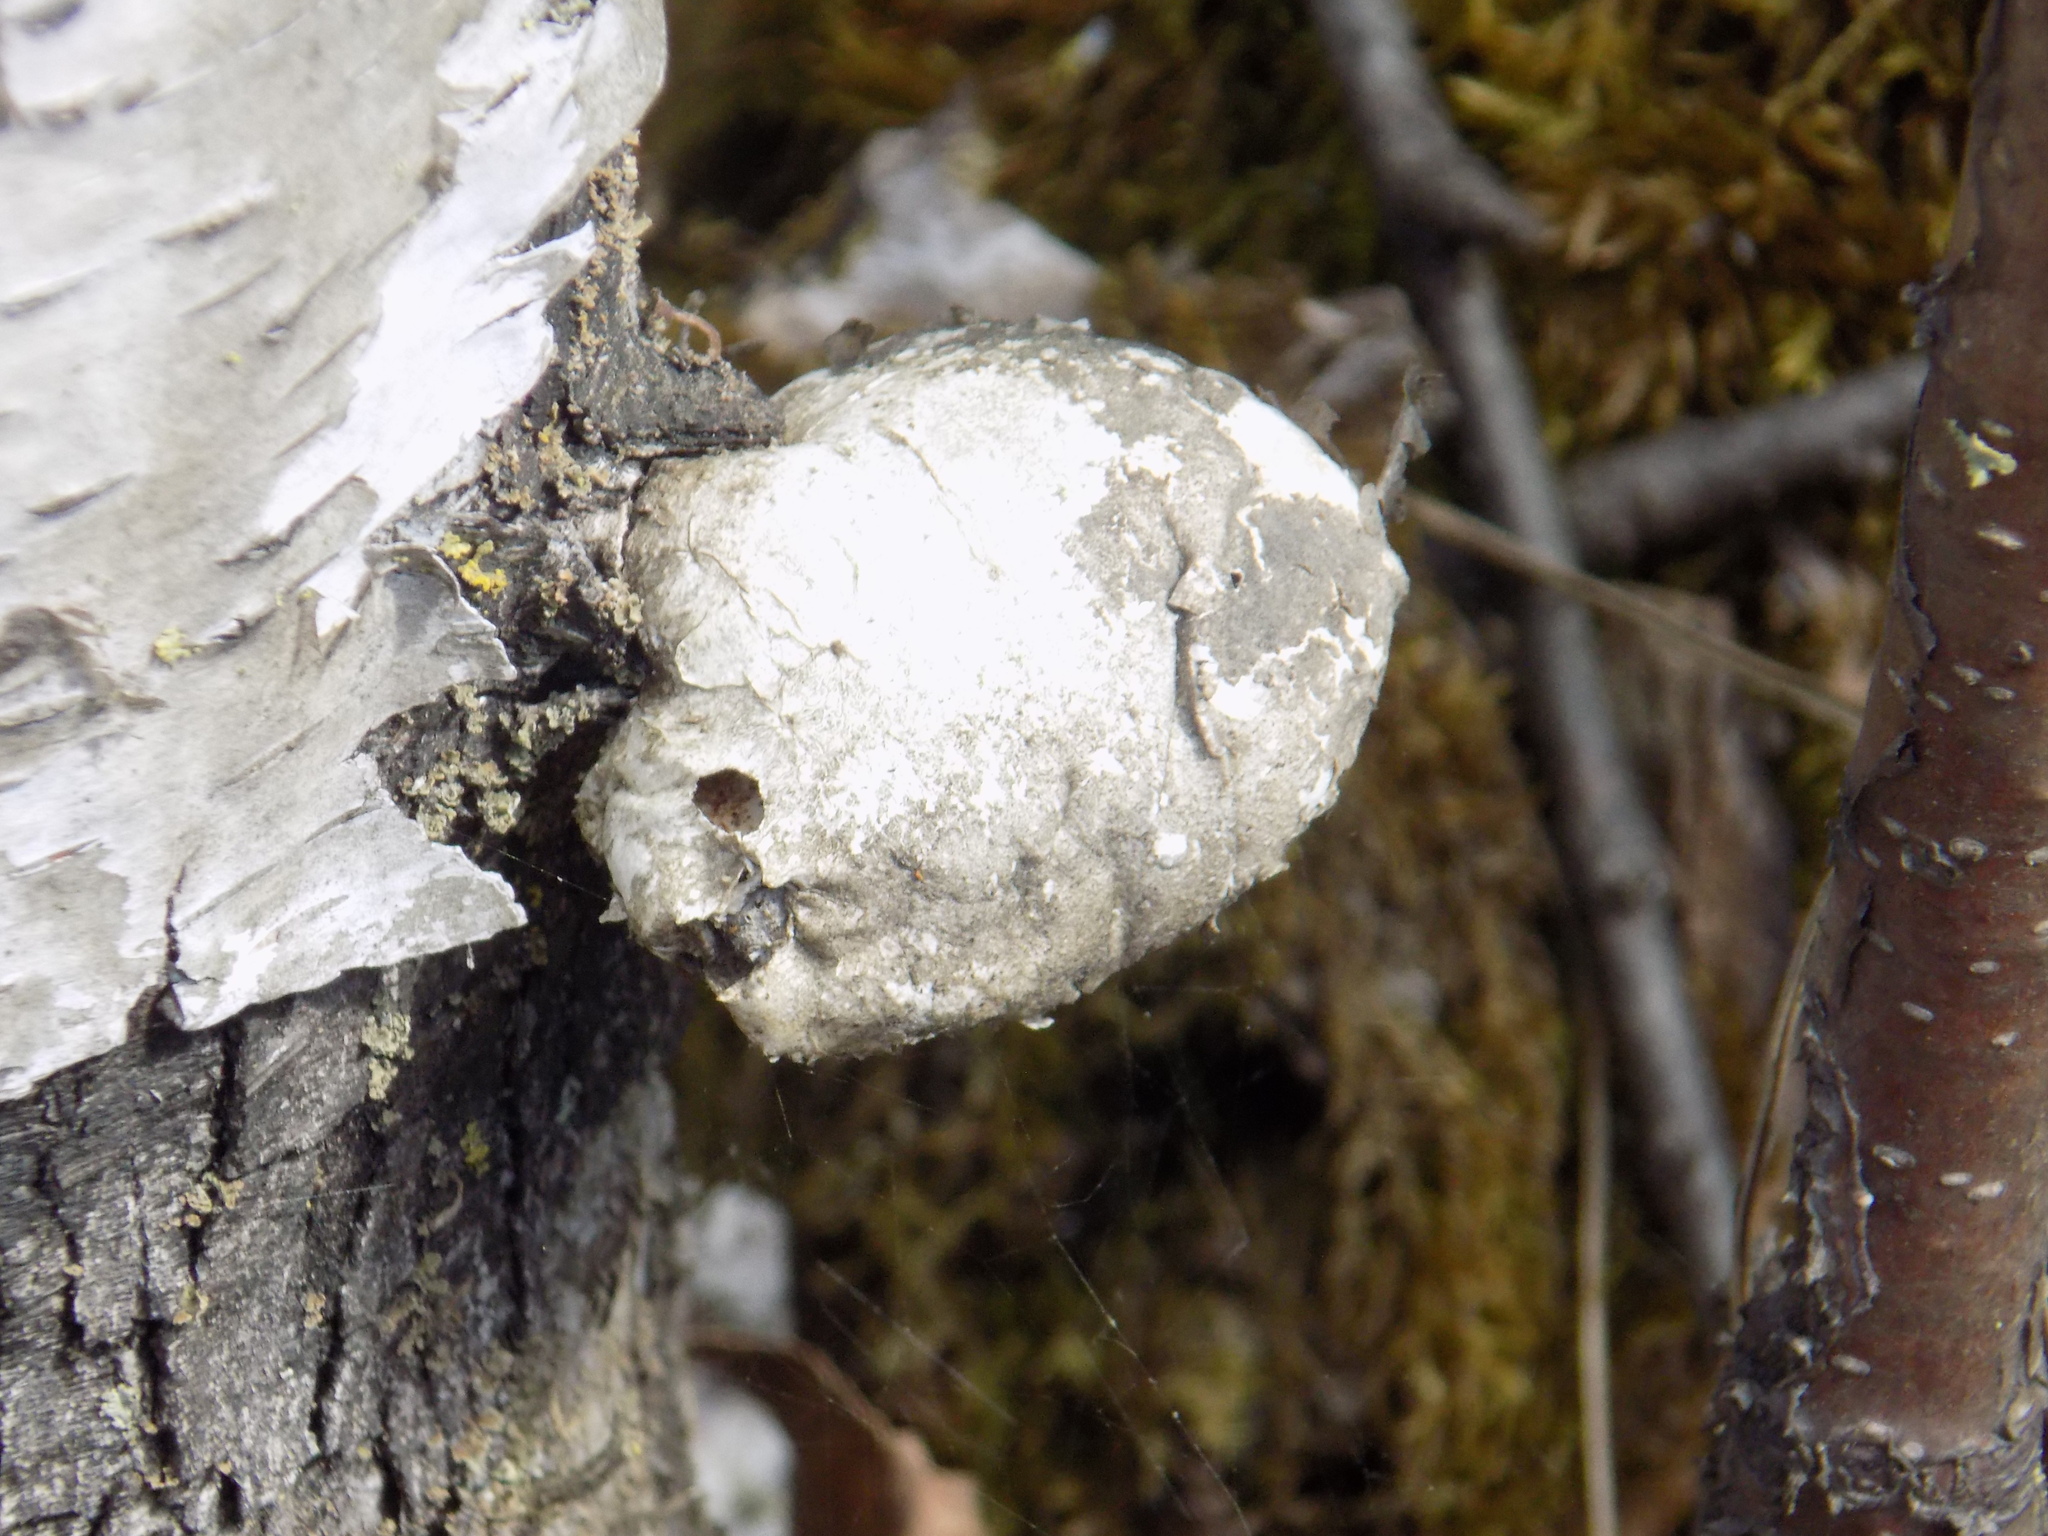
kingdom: Fungi
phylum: Basidiomycota
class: Agaricomycetes
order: Polyporales
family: Fomitopsidaceae
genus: Fomitopsis
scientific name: Fomitopsis betulina
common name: Birch polypore
